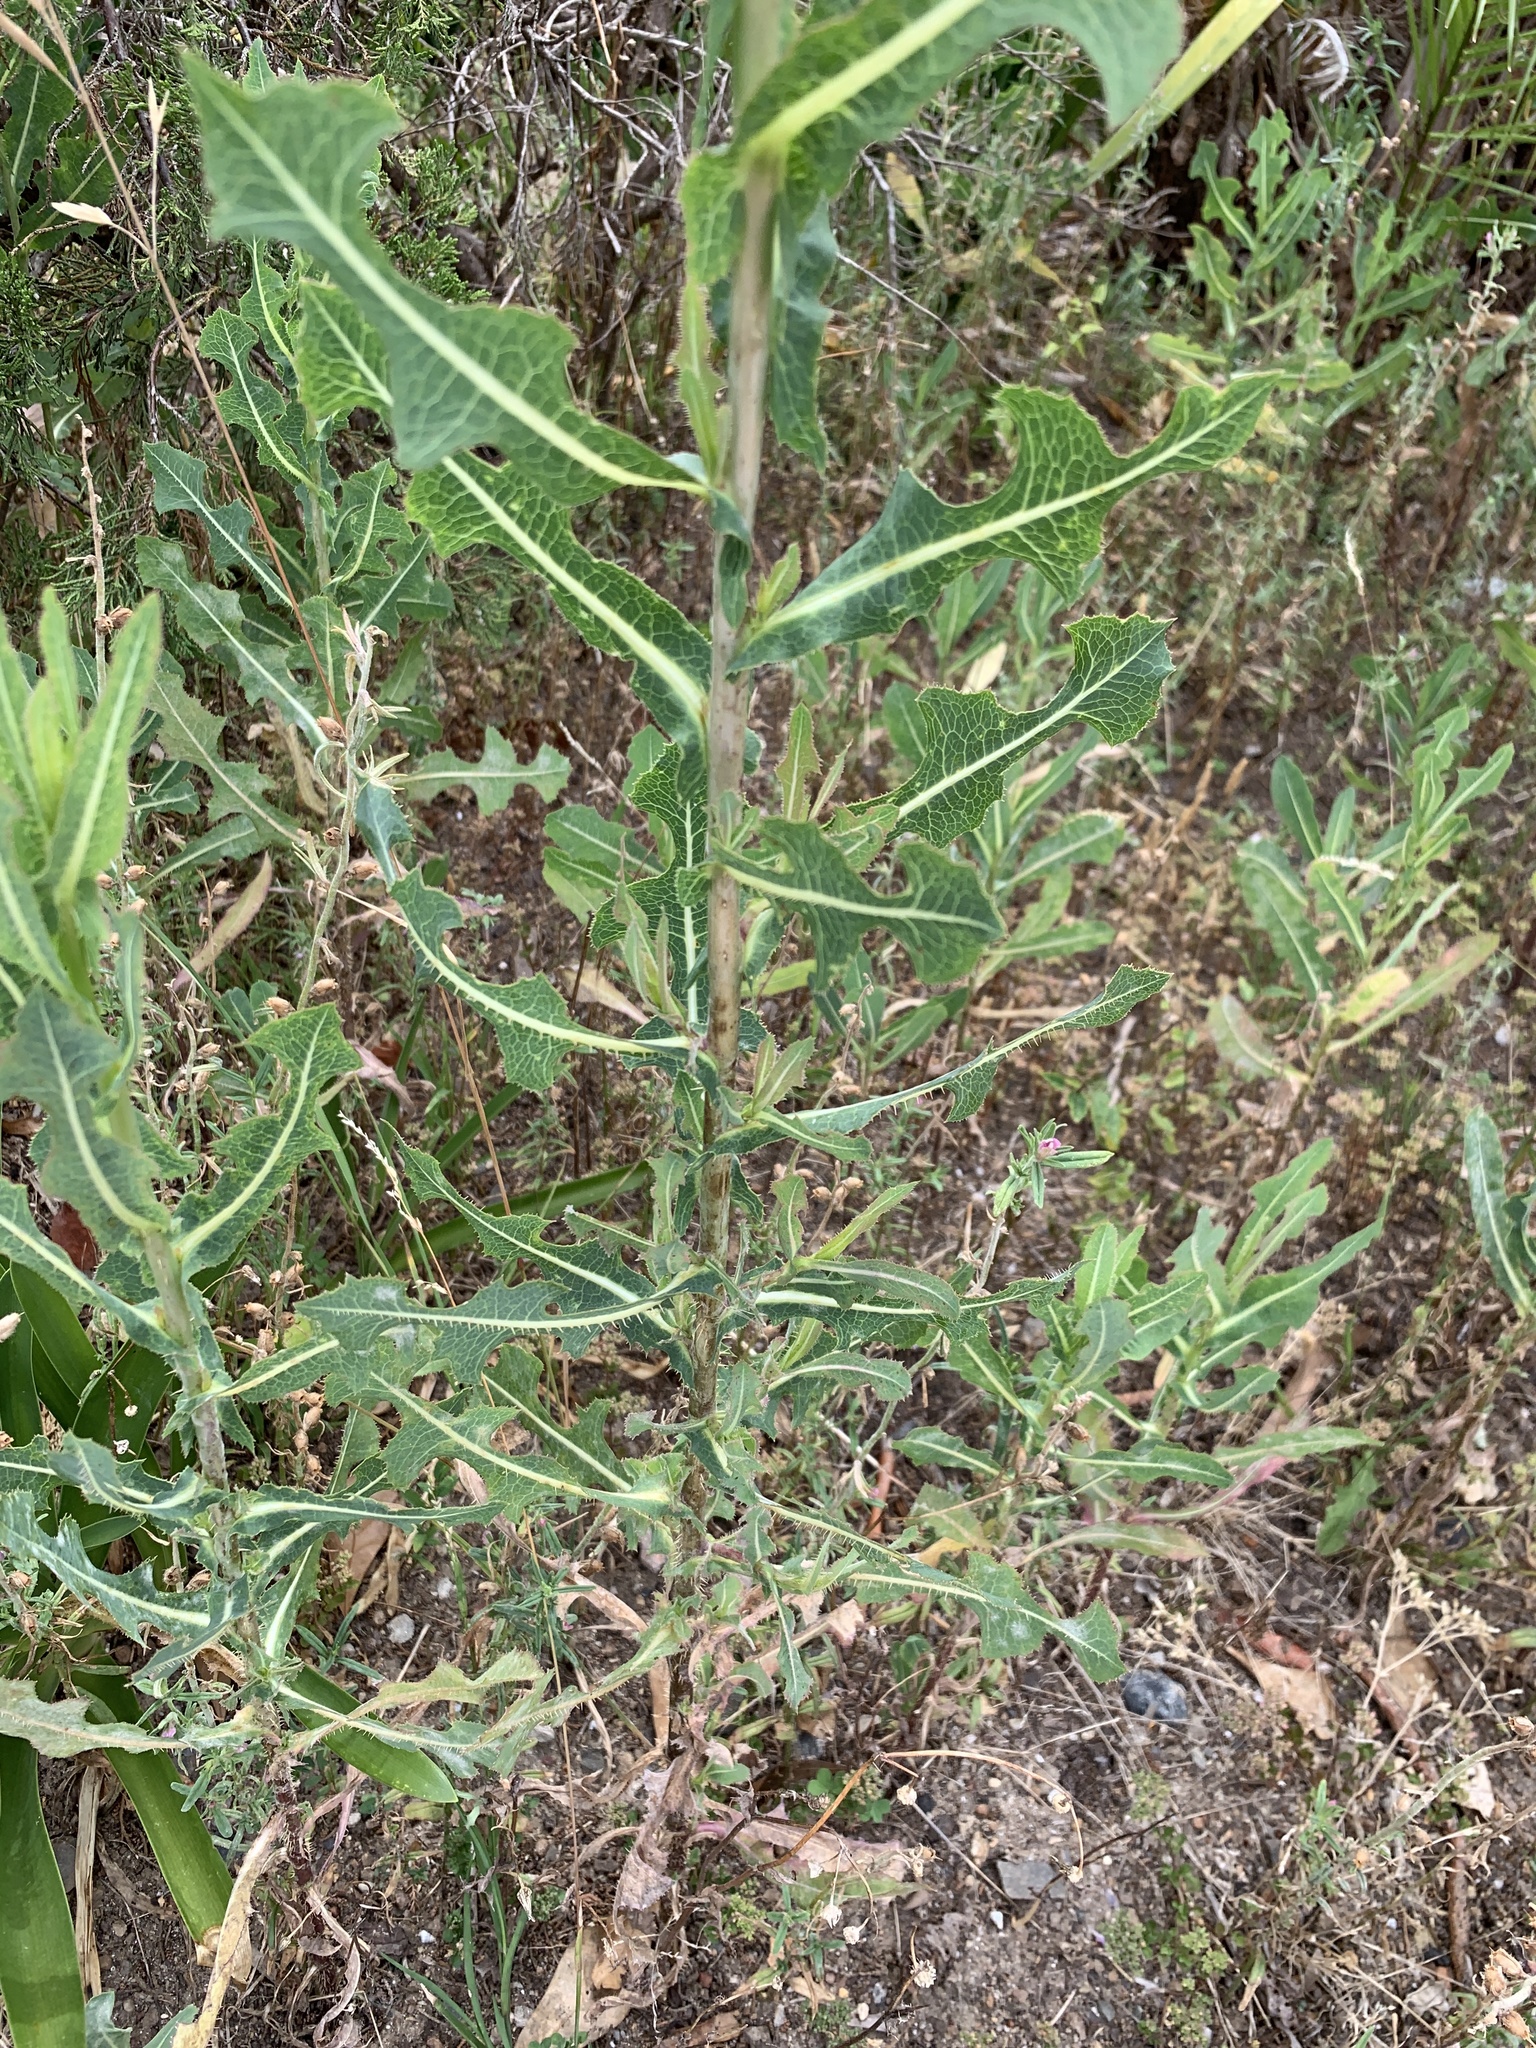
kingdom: Plantae
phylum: Tracheophyta
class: Magnoliopsida
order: Asterales
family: Asteraceae
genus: Lactuca
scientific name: Lactuca serriola
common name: Prickly lettuce
